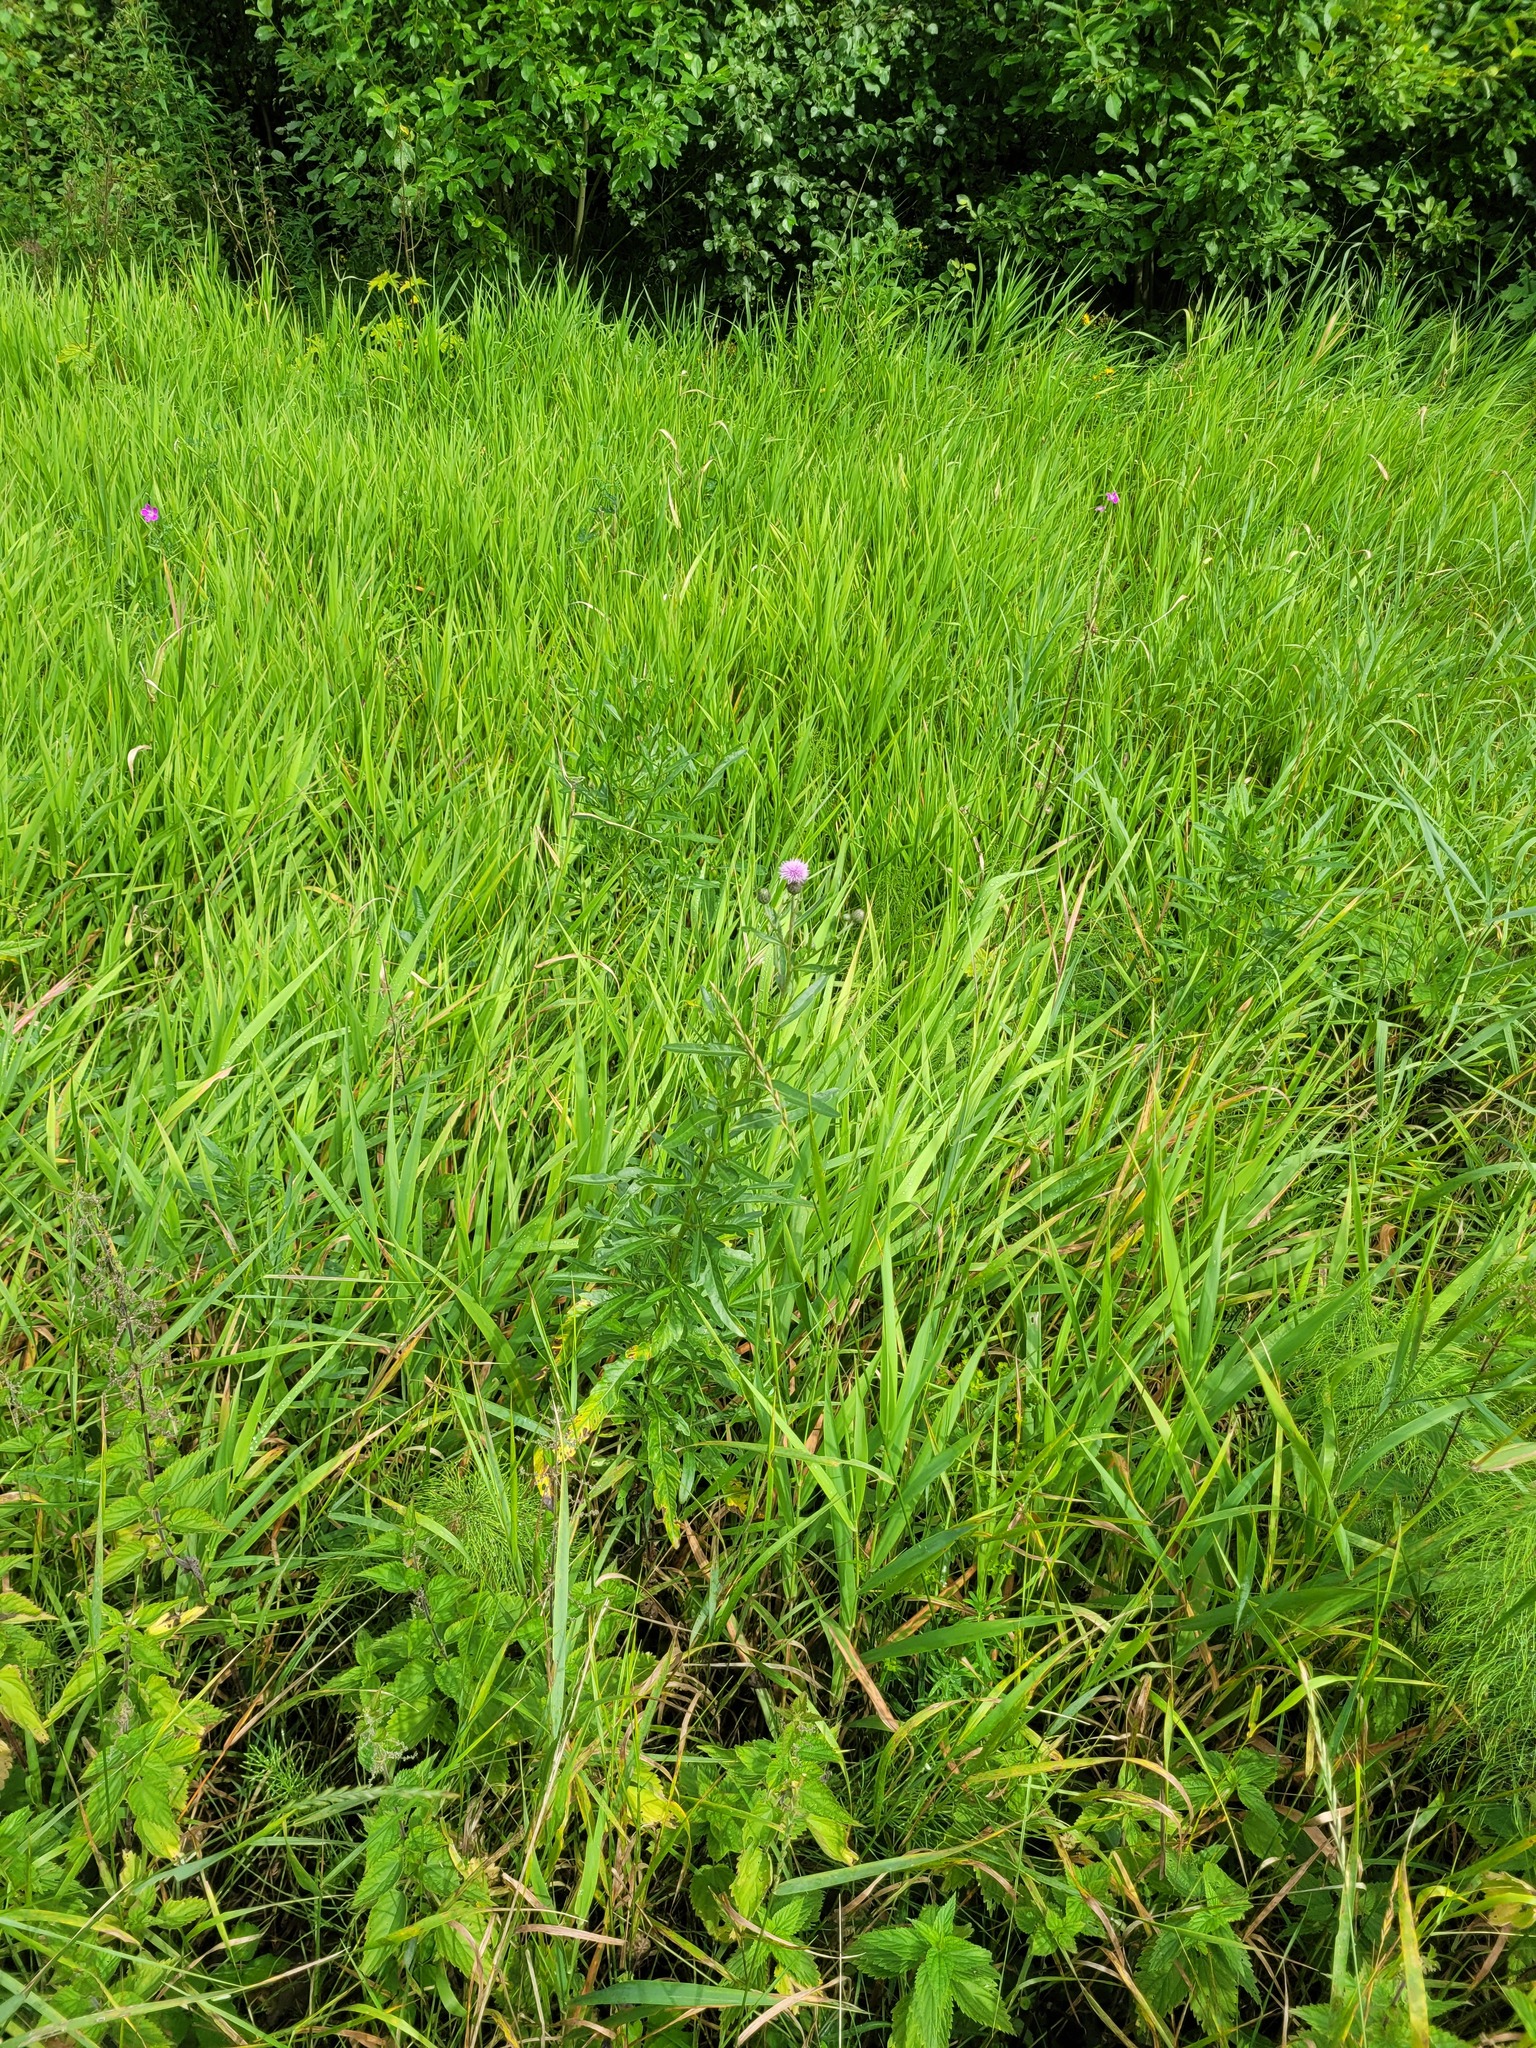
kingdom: Plantae
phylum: Tracheophyta
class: Magnoliopsida
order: Asterales
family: Asteraceae
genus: Cirsium
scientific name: Cirsium arvense
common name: Creeping thistle
